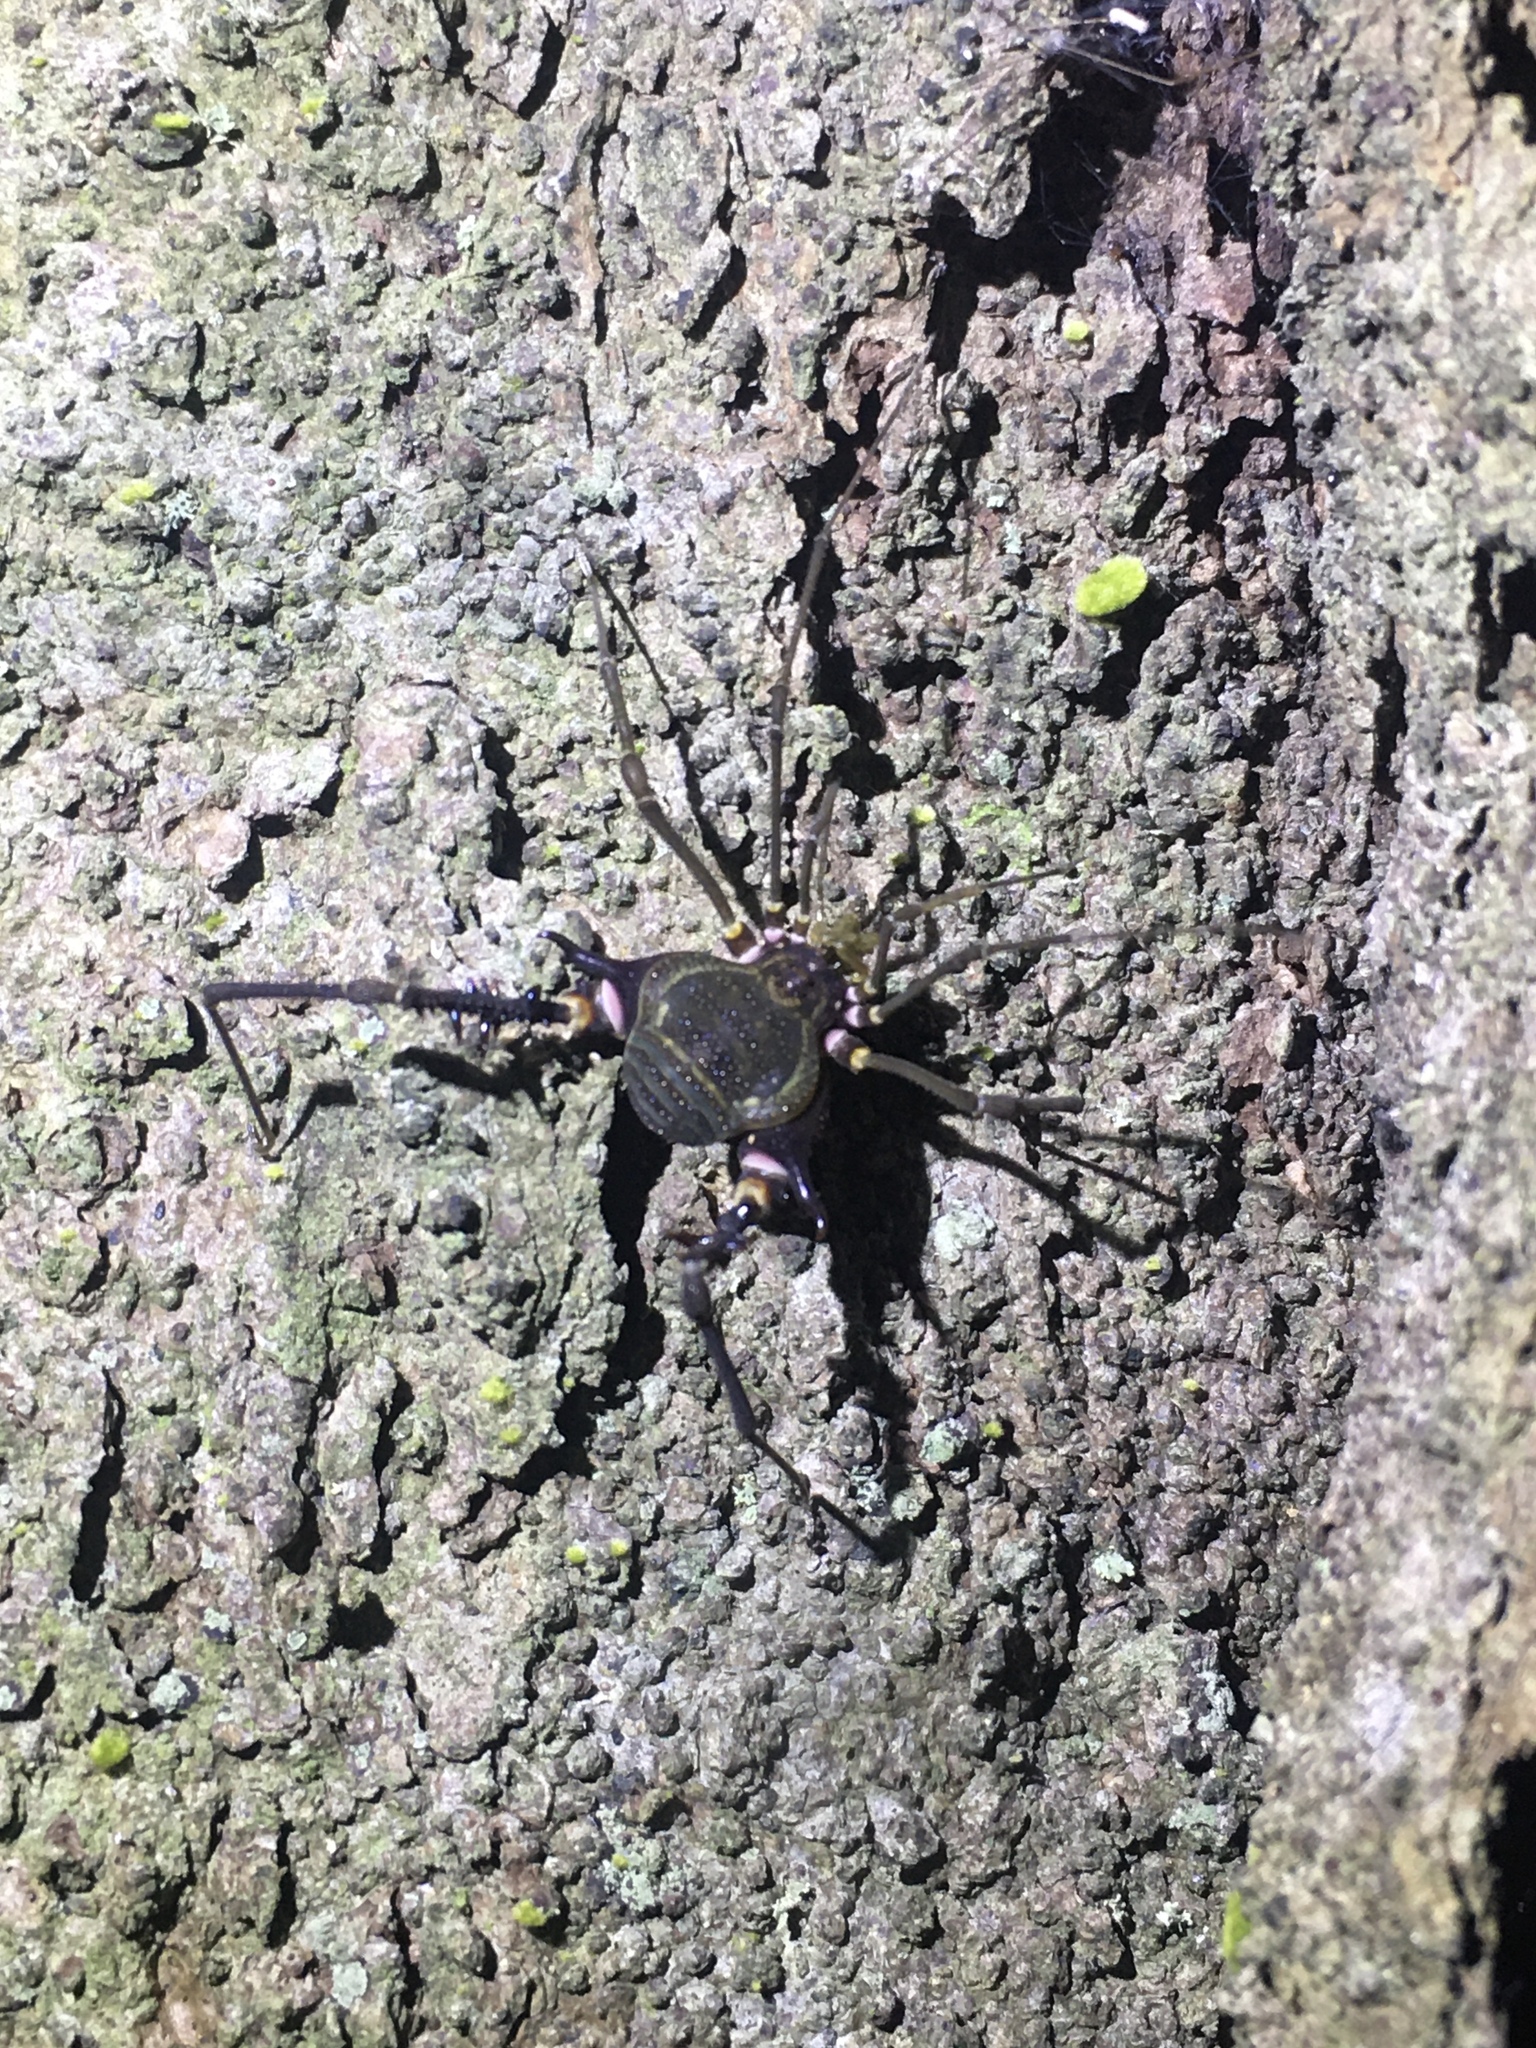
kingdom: Animalia
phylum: Arthropoda
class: Arachnida
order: Opiliones
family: Gonyleptidae
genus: Geraeocormobius
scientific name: Geraeocormobius sylvarum
